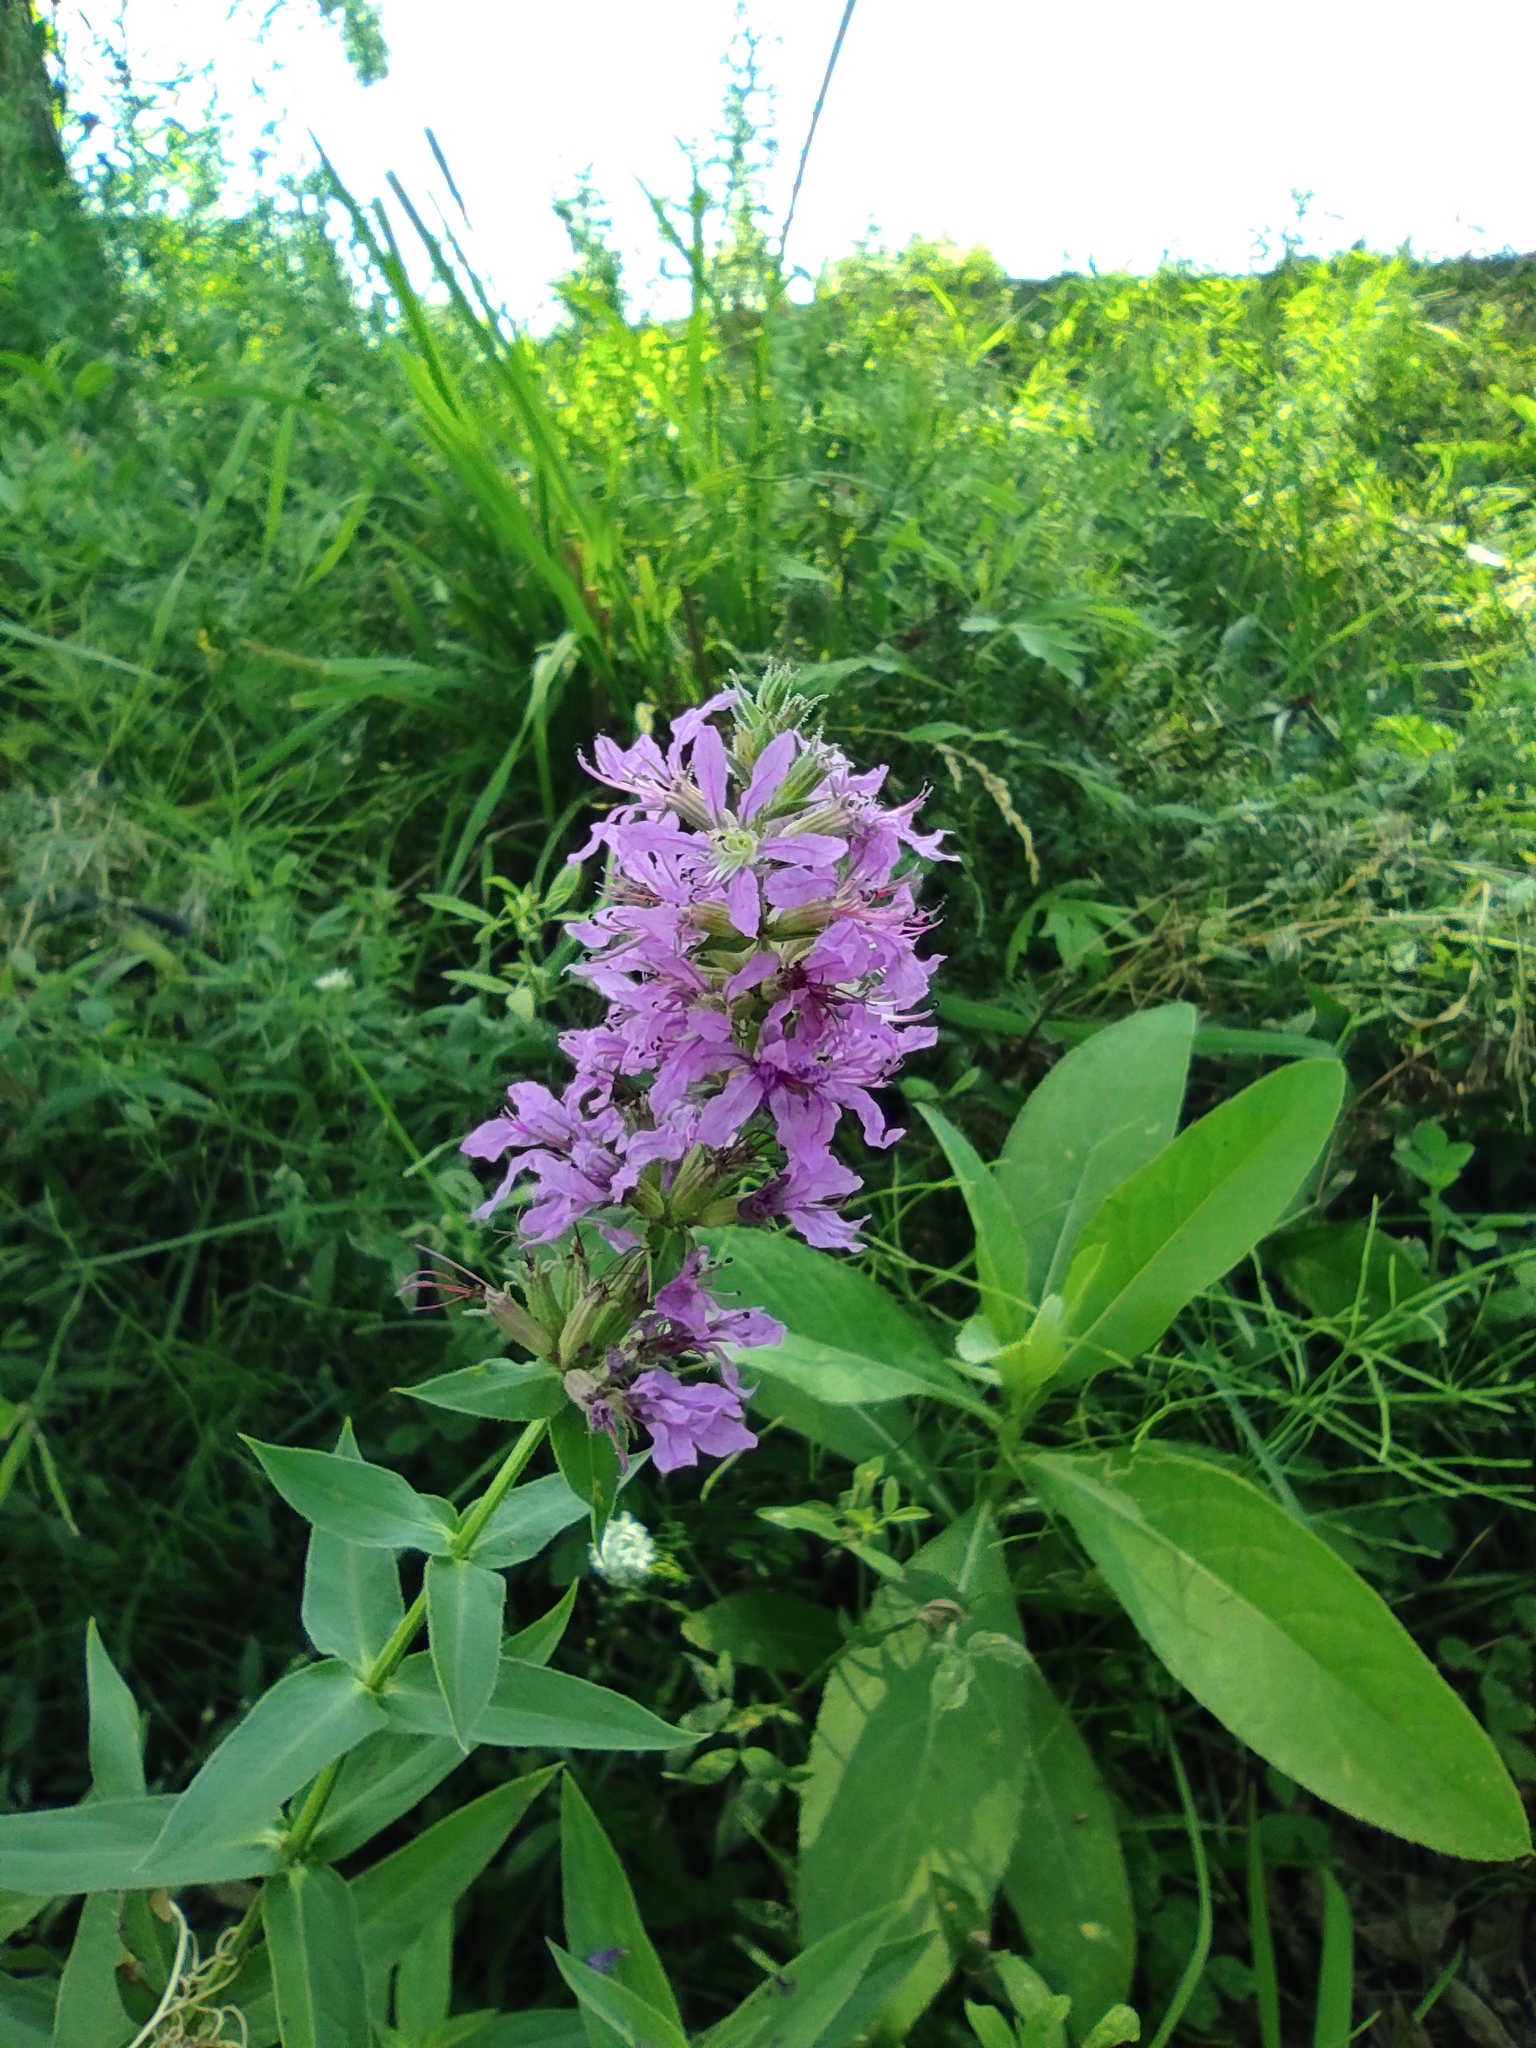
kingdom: Plantae
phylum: Tracheophyta
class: Magnoliopsida
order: Myrtales
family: Lythraceae
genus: Lythrum
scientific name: Lythrum salicaria
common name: Purple loosestrife
